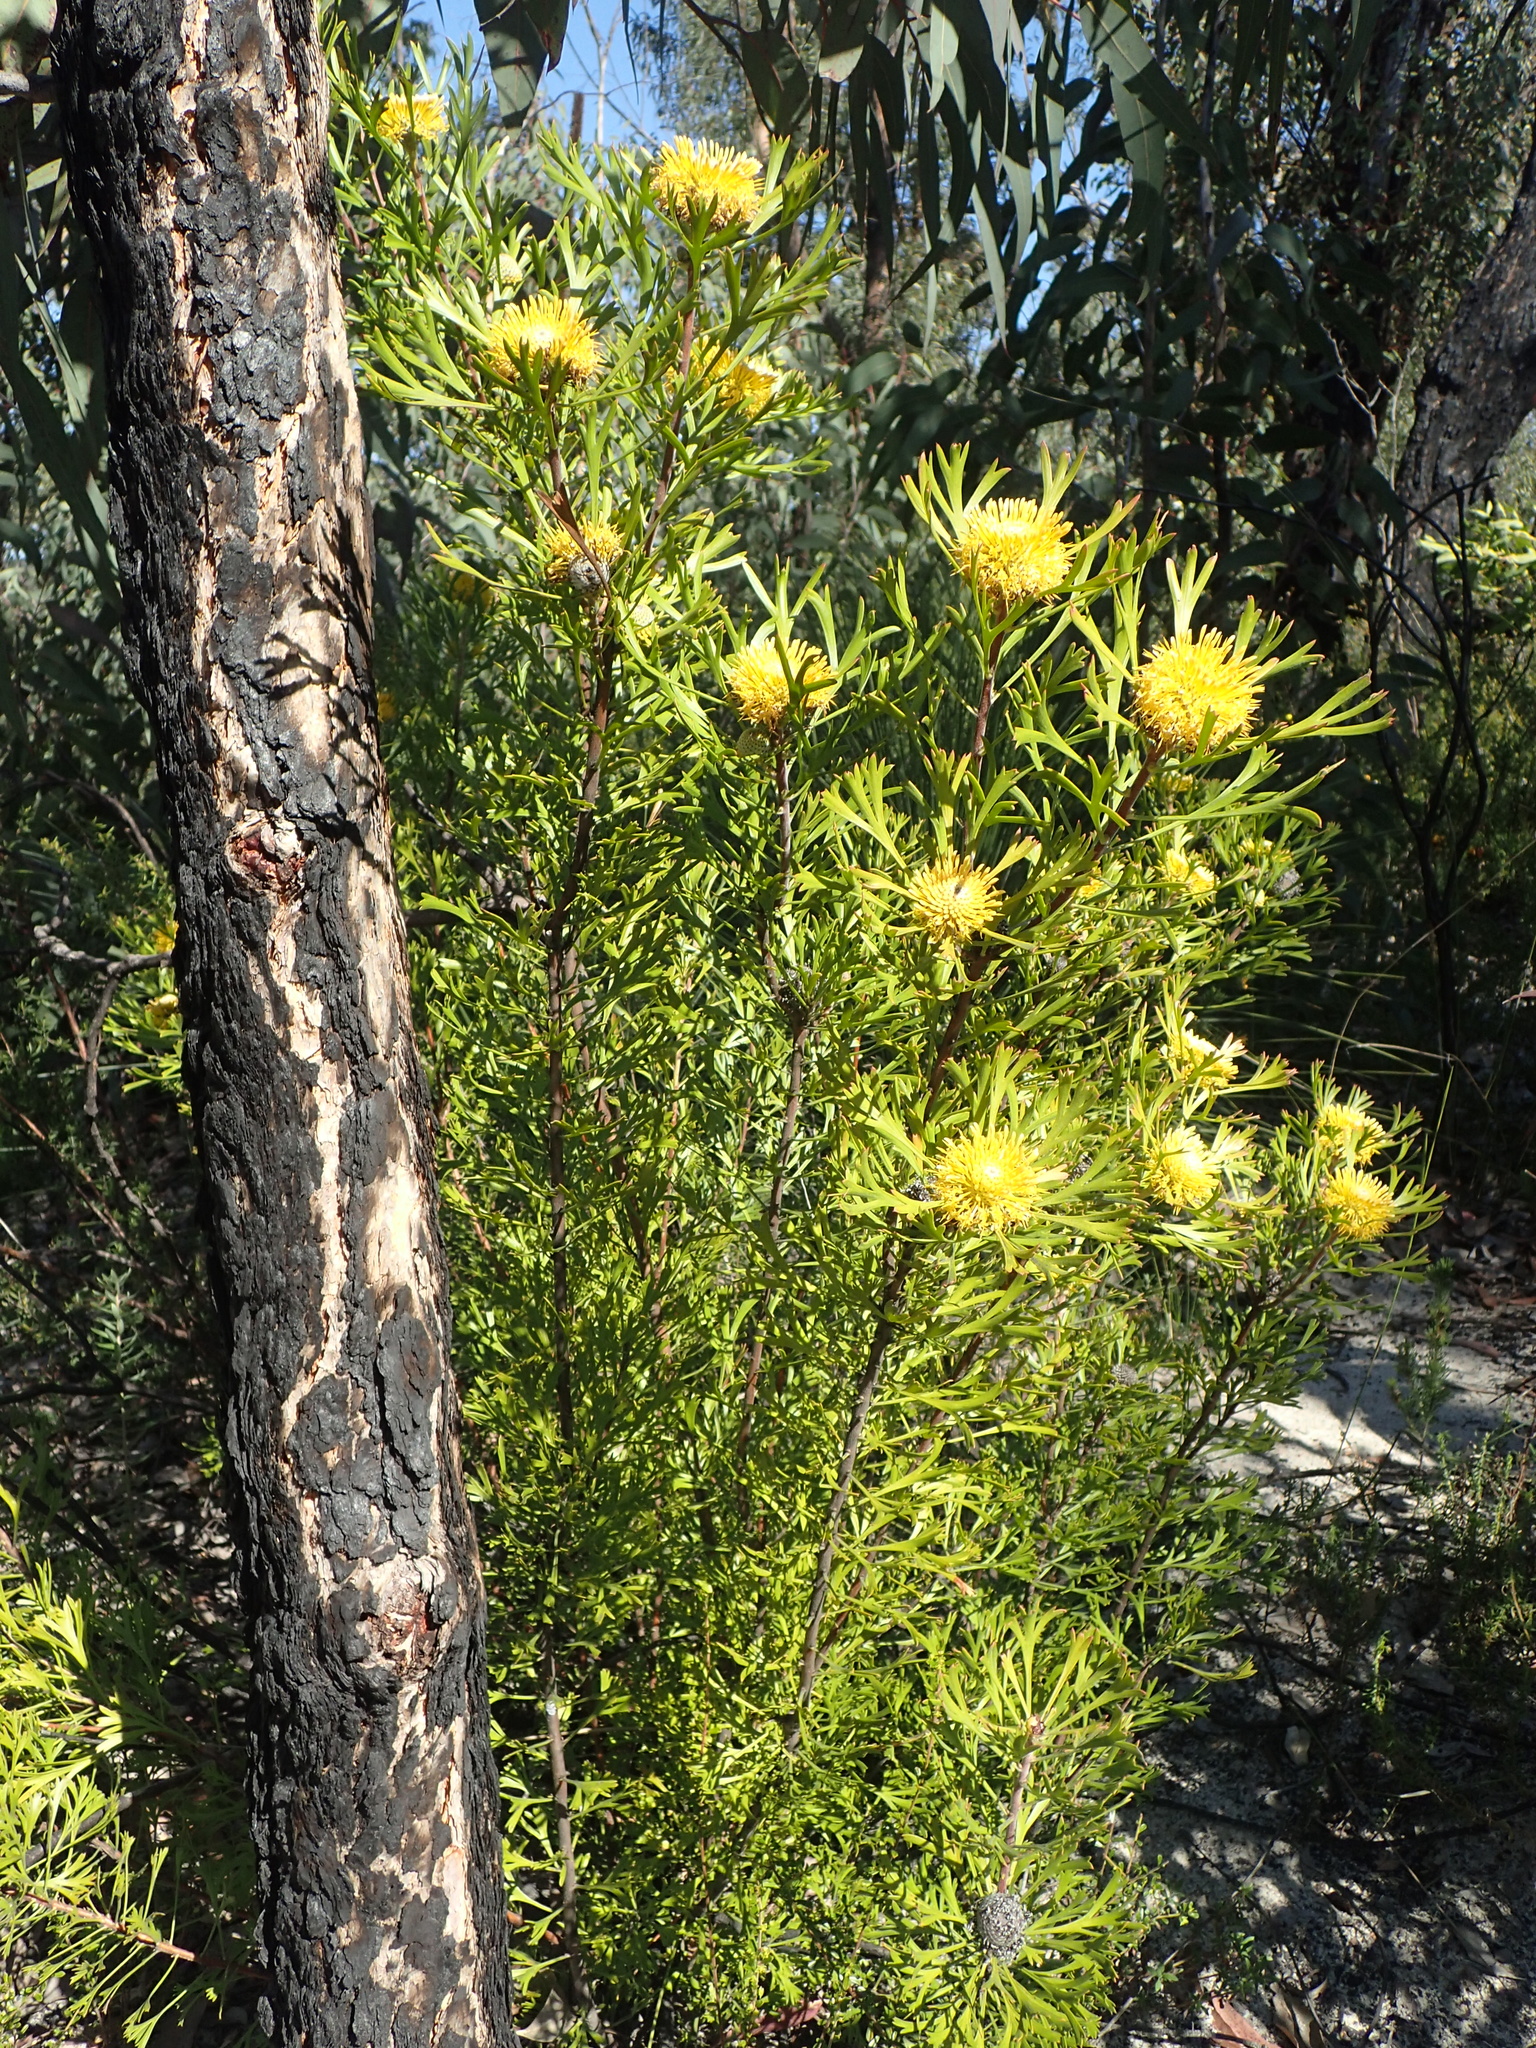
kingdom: Plantae
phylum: Tracheophyta
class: Magnoliopsida
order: Proteales
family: Proteaceae
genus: Isopogon
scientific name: Isopogon anemonifolius
